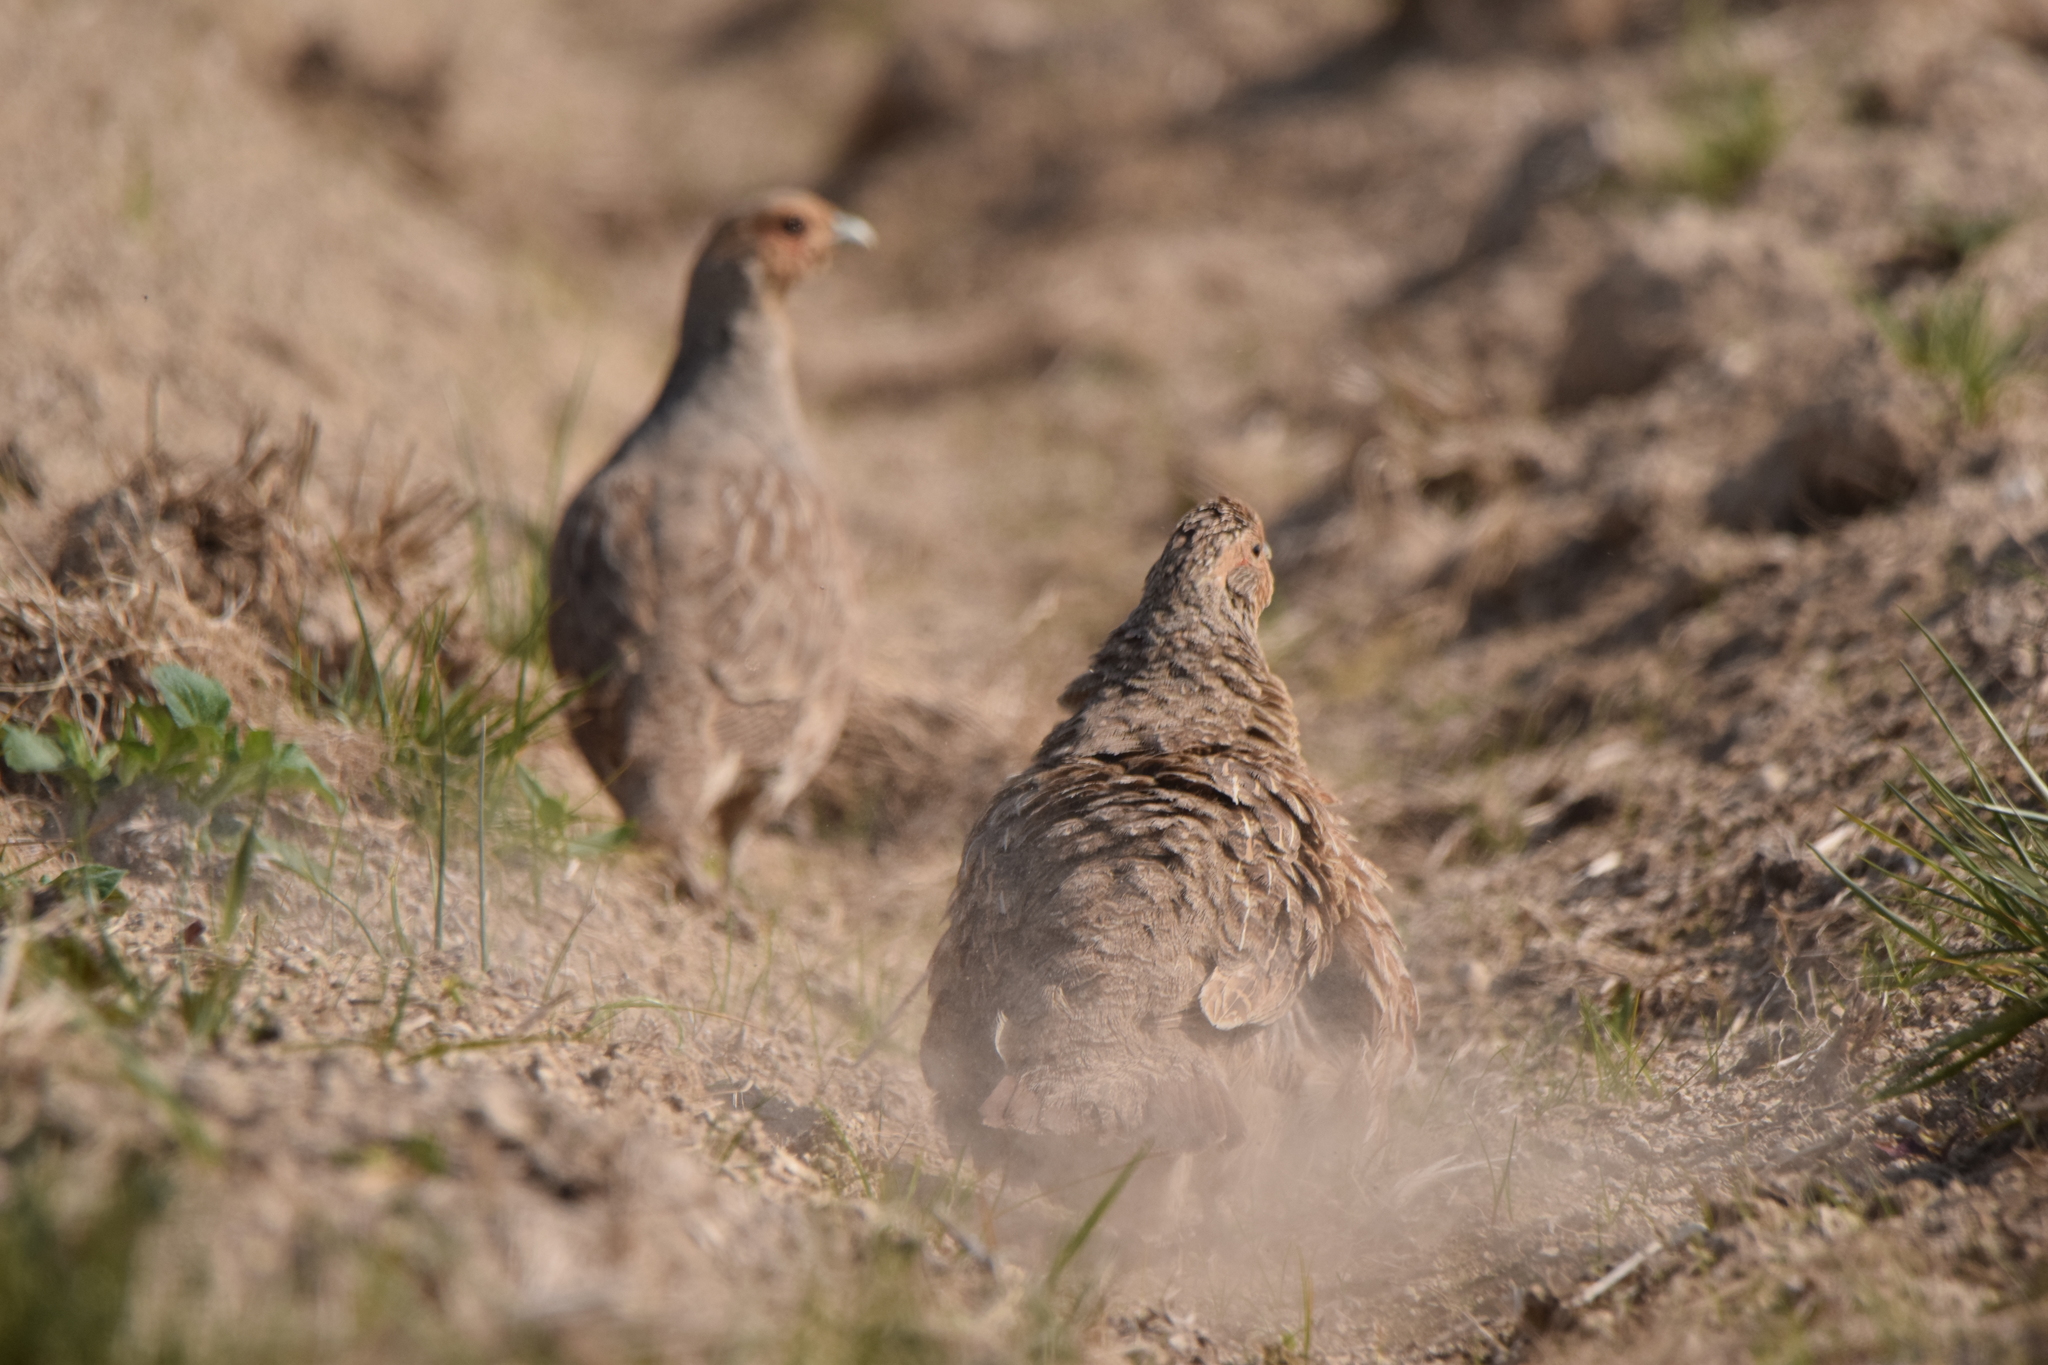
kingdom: Animalia
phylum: Chordata
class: Aves
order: Galliformes
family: Phasianidae
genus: Perdix
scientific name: Perdix perdix
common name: Grey partridge
